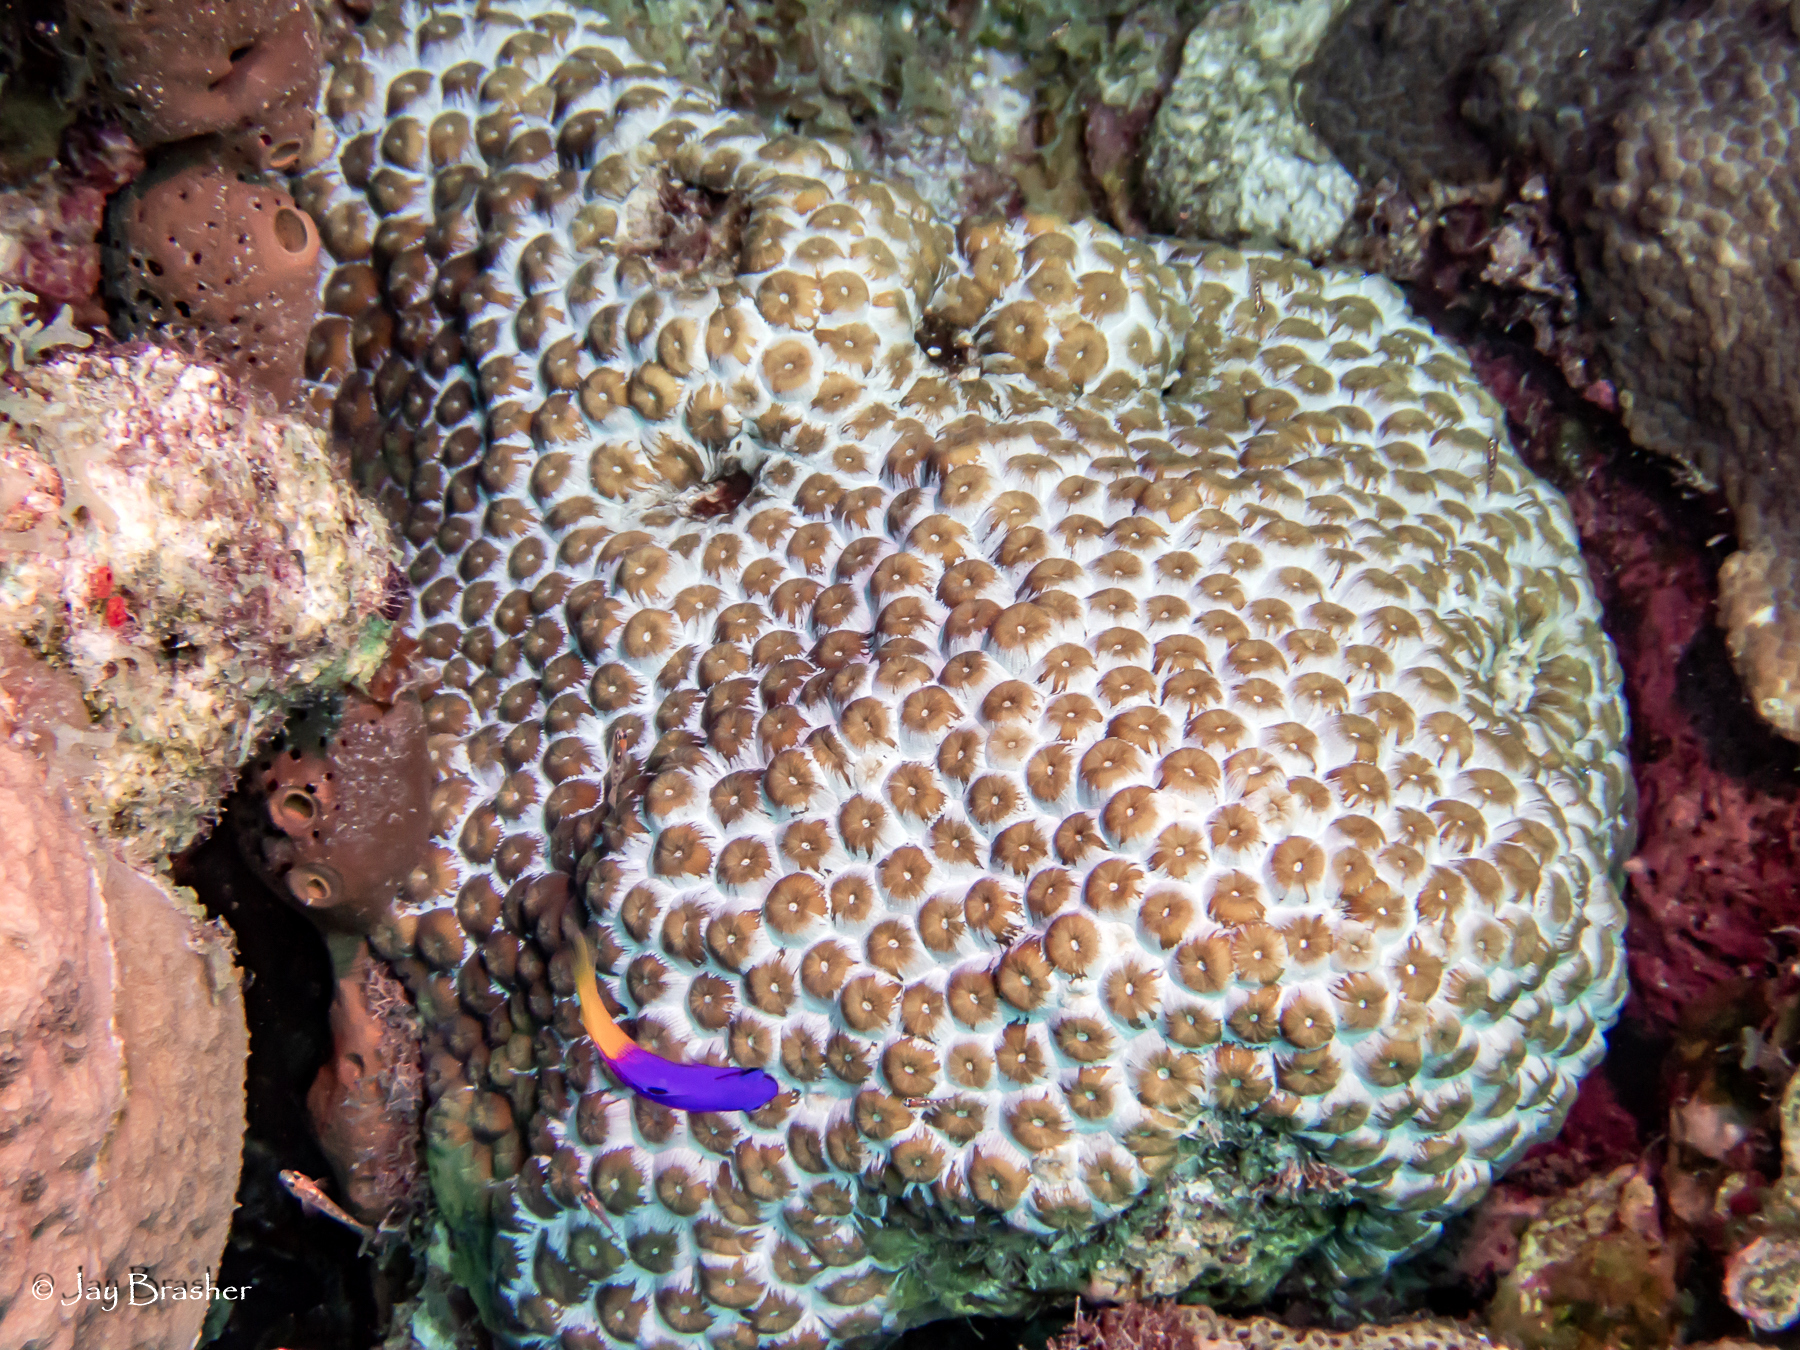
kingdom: Animalia
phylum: Cnidaria
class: Anthozoa
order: Scleractinia
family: Montastraeidae
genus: Montastraea
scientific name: Montastraea cavernosa
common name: Great star coral
